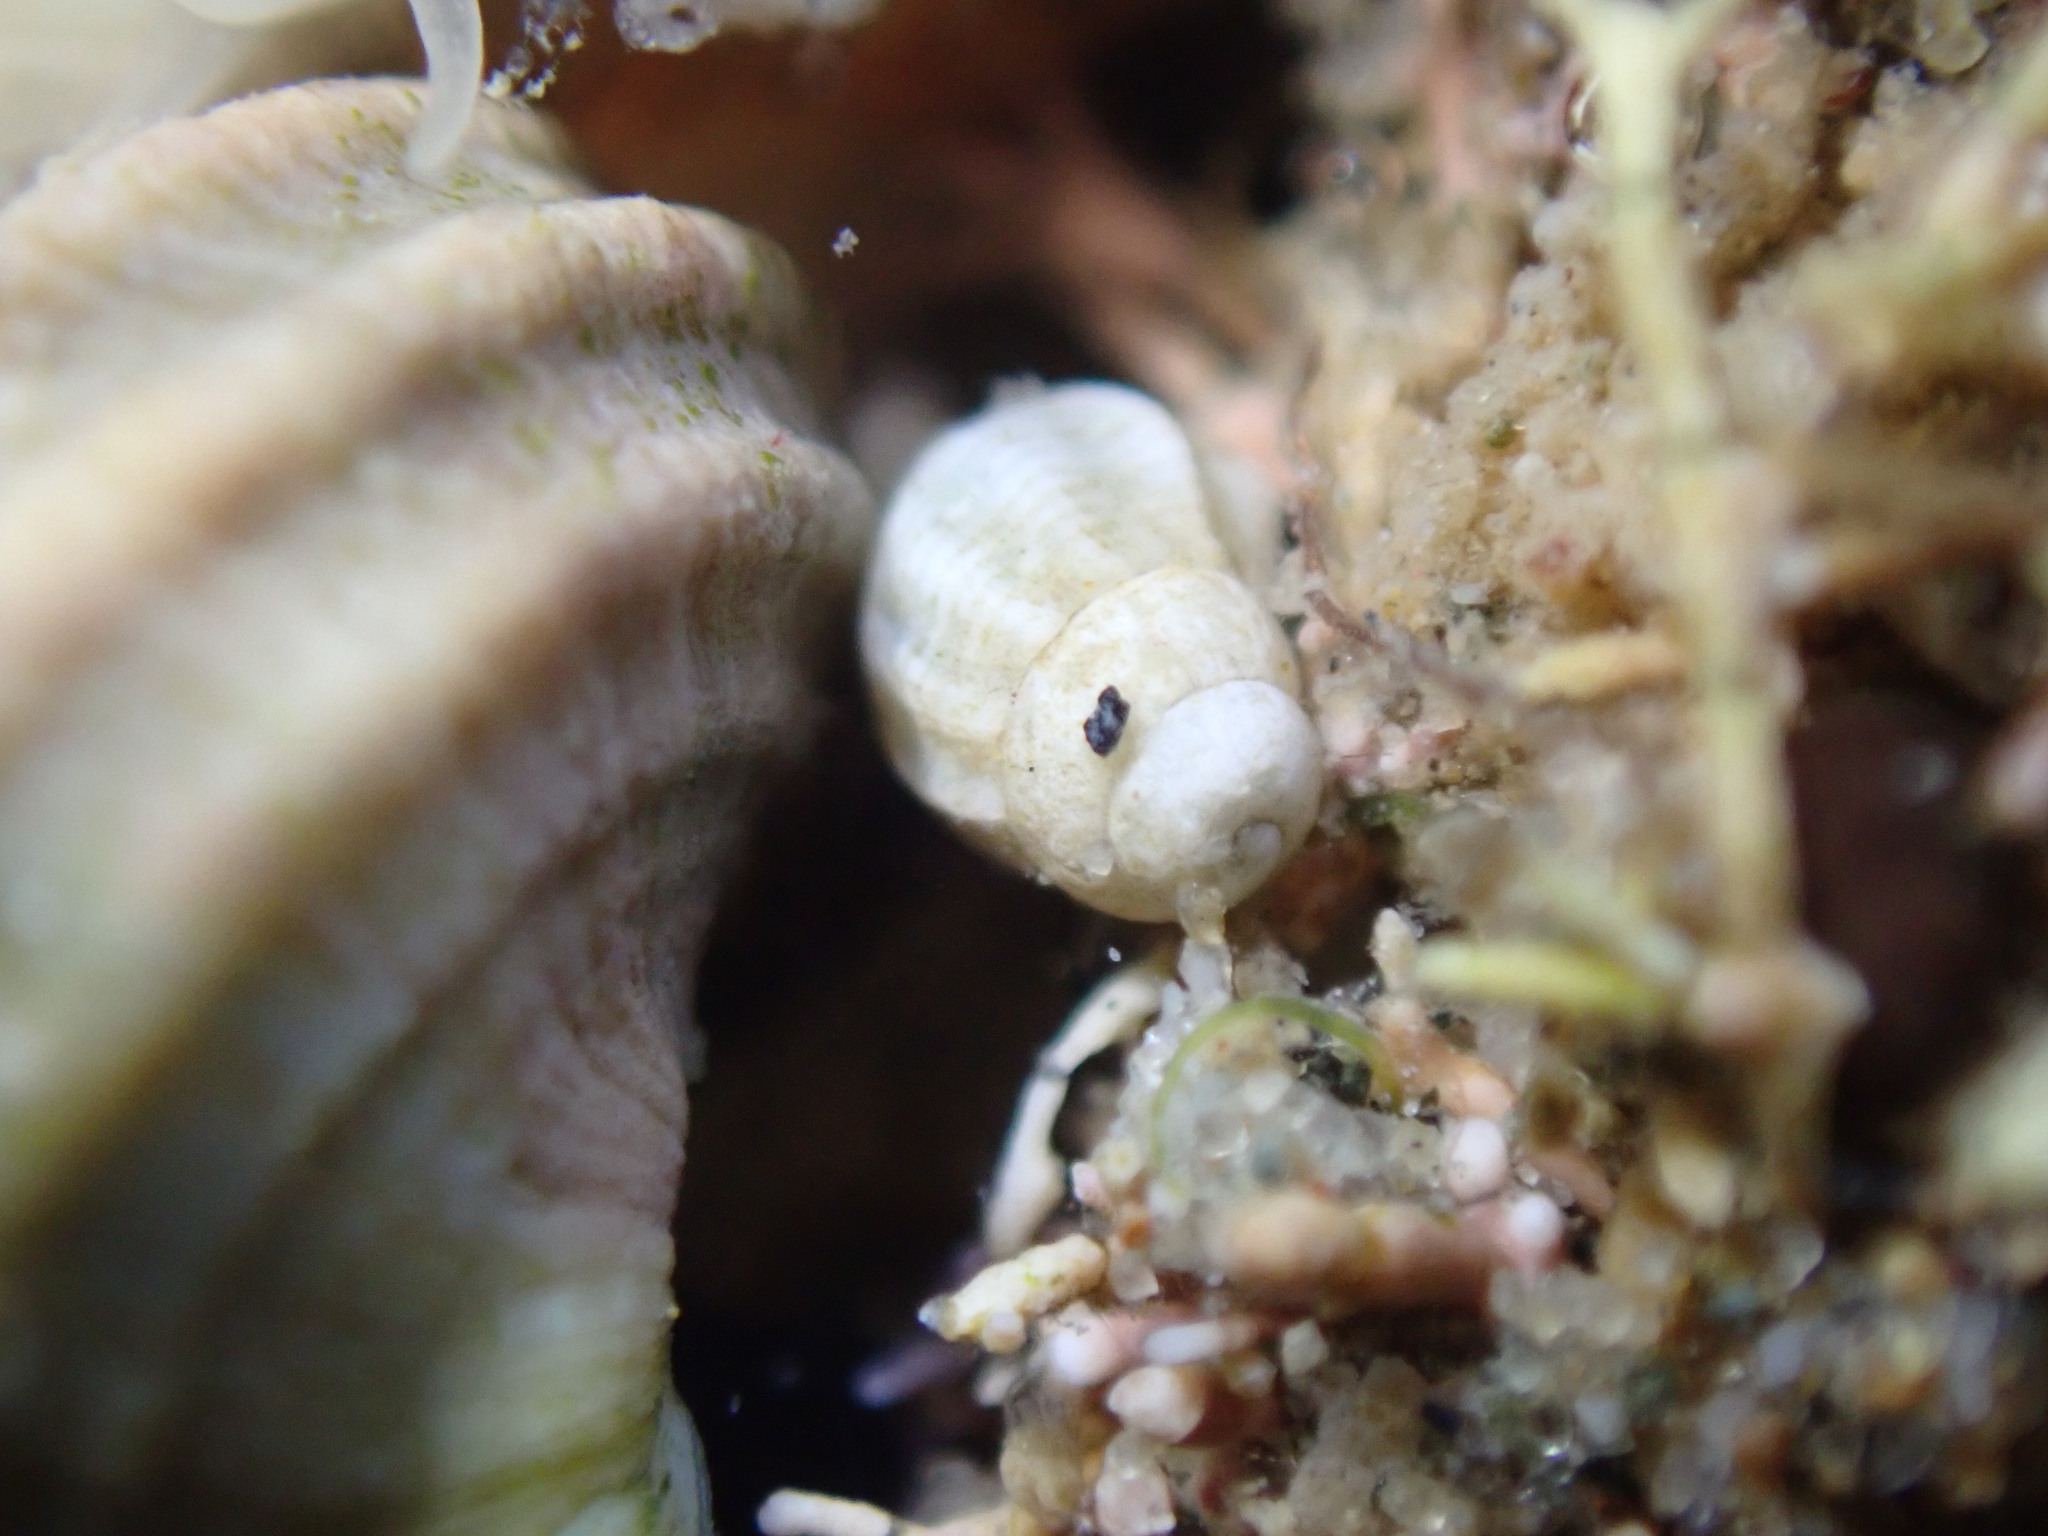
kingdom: Animalia
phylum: Mollusca
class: Gastropoda
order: Neogastropoda
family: Cominellidae
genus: Cominella
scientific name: Cominella adspersa
